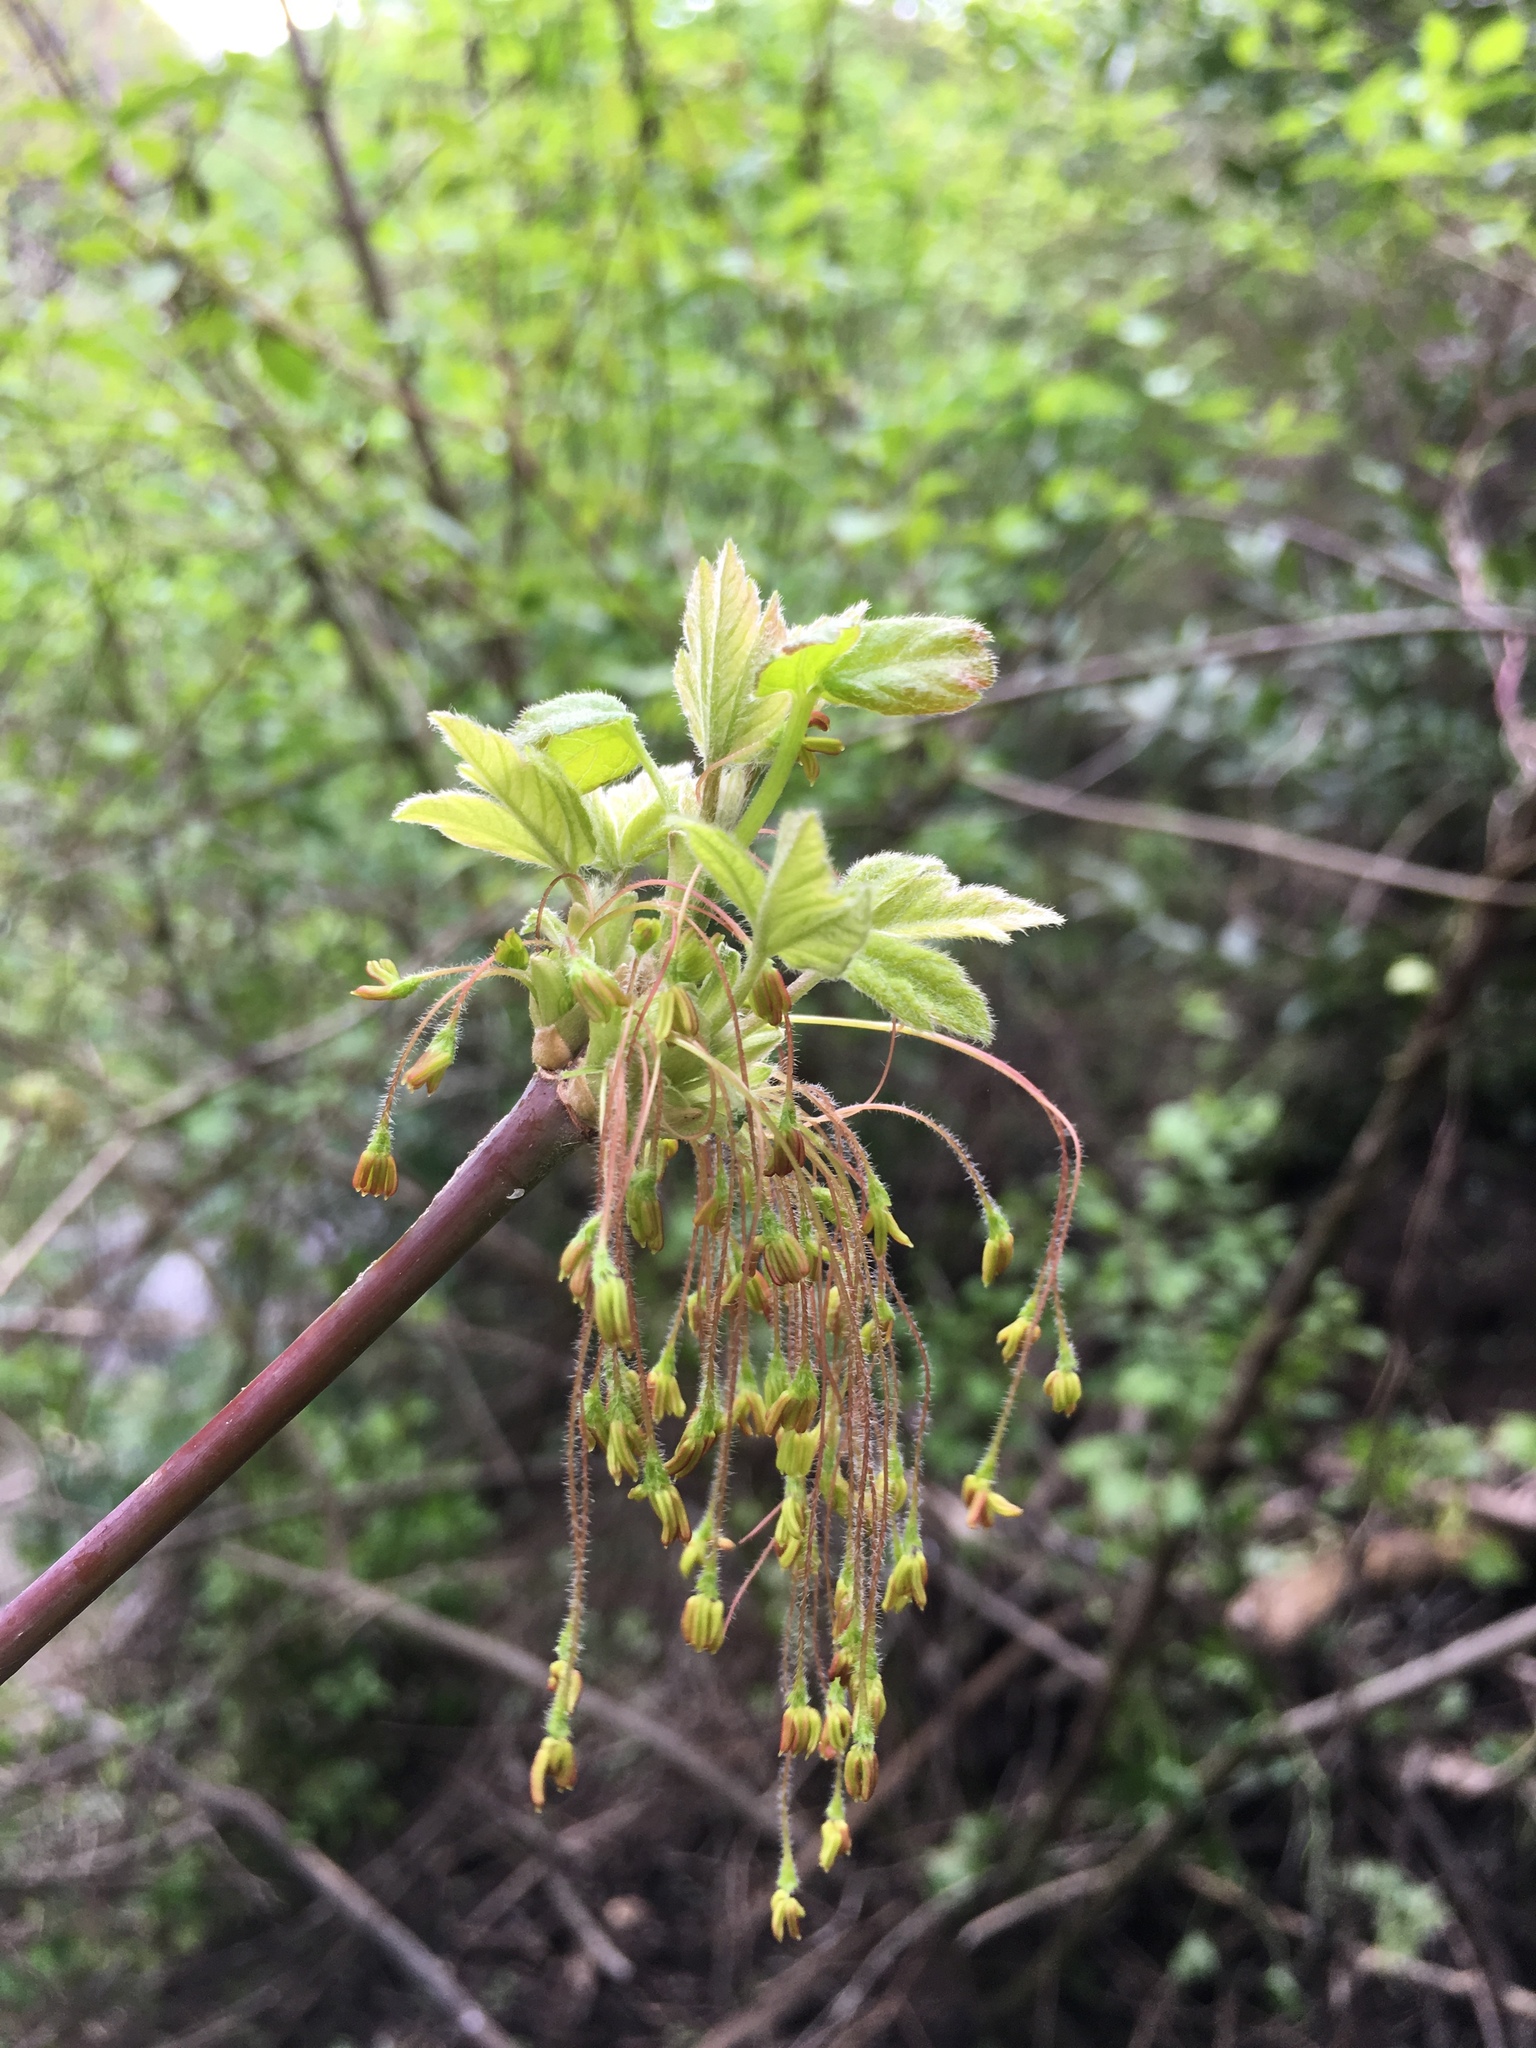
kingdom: Plantae
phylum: Tracheophyta
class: Magnoliopsida
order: Sapindales
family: Sapindaceae
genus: Acer
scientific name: Acer negundo
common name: Ashleaf maple
